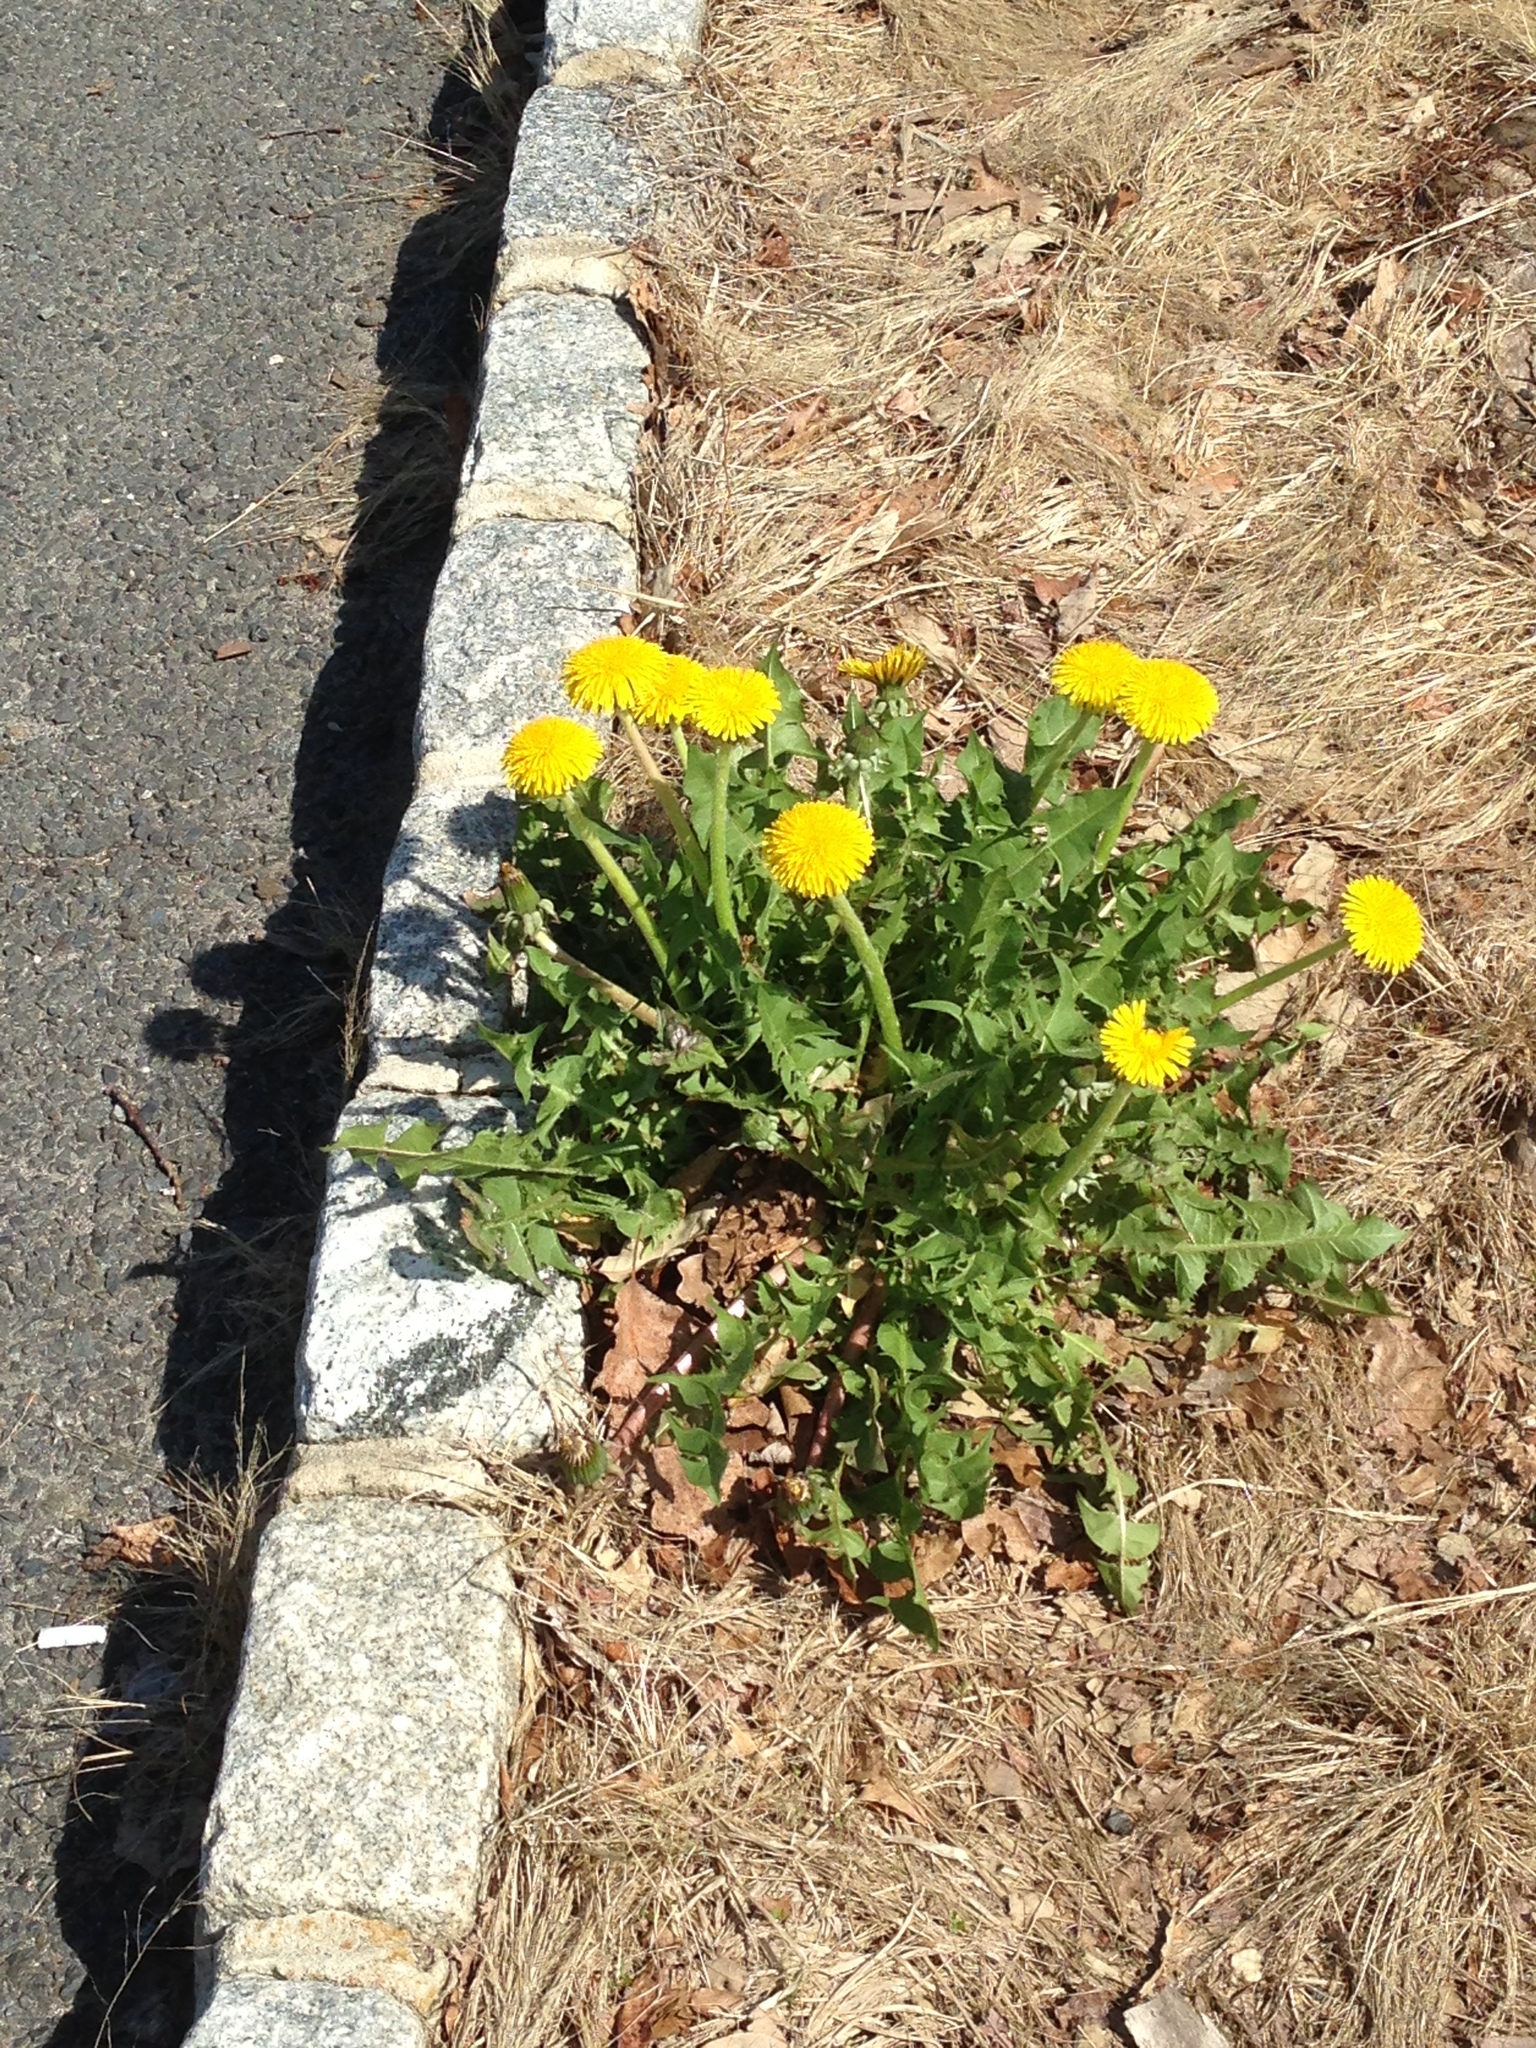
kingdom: Plantae
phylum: Tracheophyta
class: Magnoliopsida
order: Asterales
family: Asteraceae
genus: Taraxacum
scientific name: Taraxacum officinale
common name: Common dandelion
